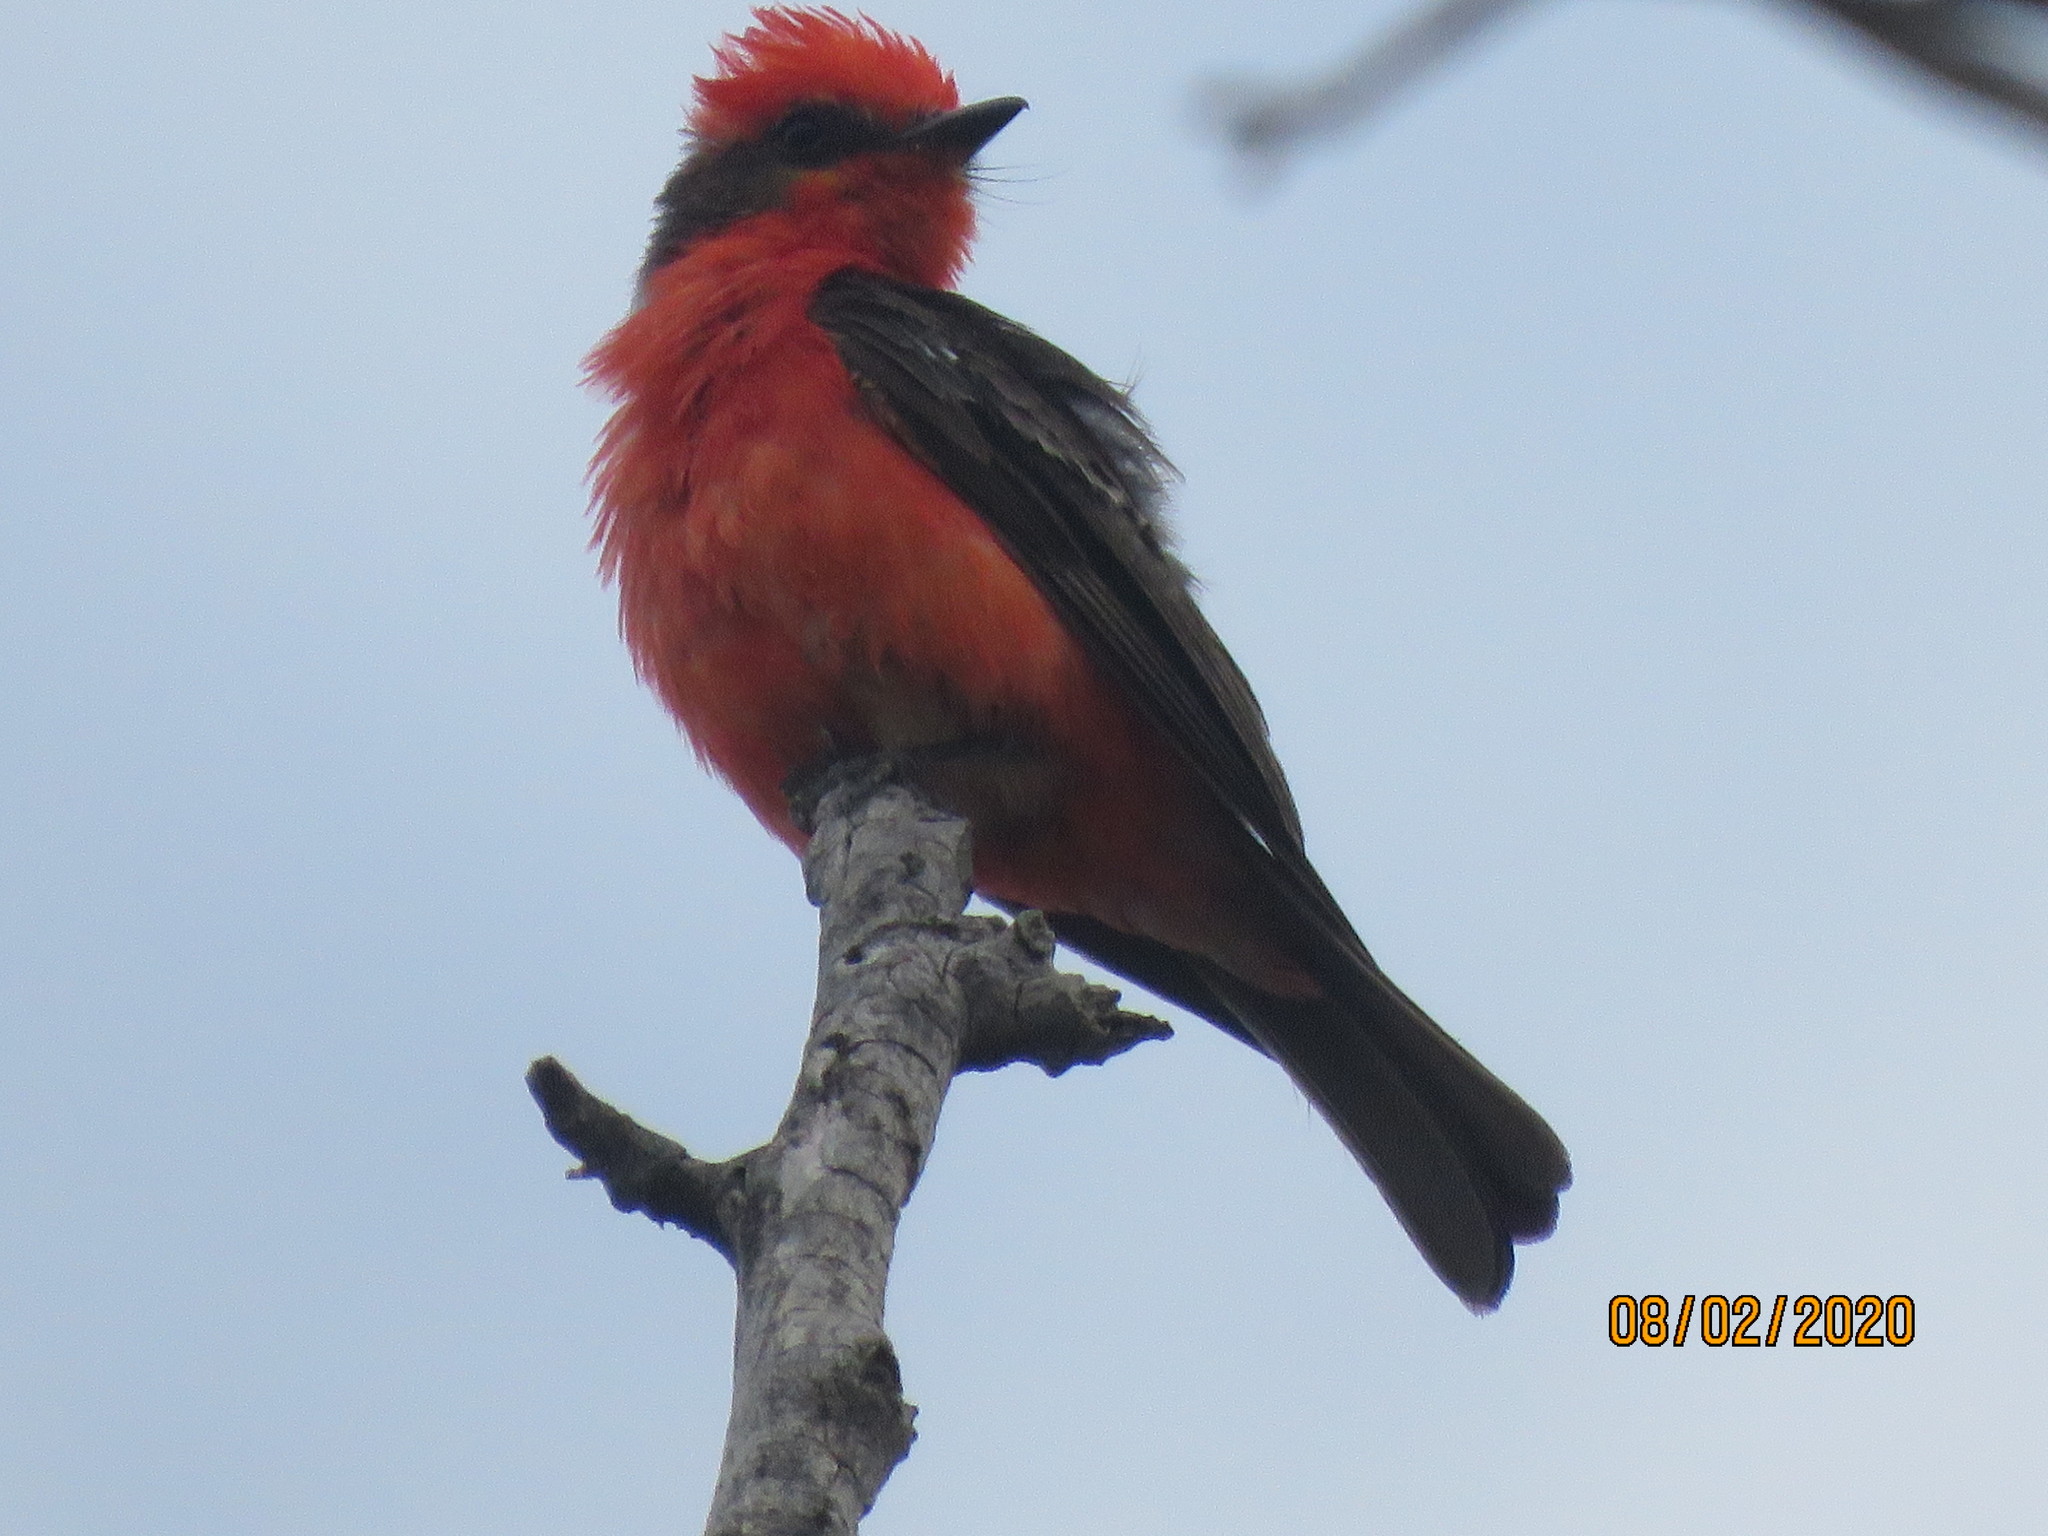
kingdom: Animalia
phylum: Chordata
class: Aves
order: Passeriformes
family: Tyrannidae
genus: Pyrocephalus
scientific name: Pyrocephalus rubinus
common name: Vermilion flycatcher
